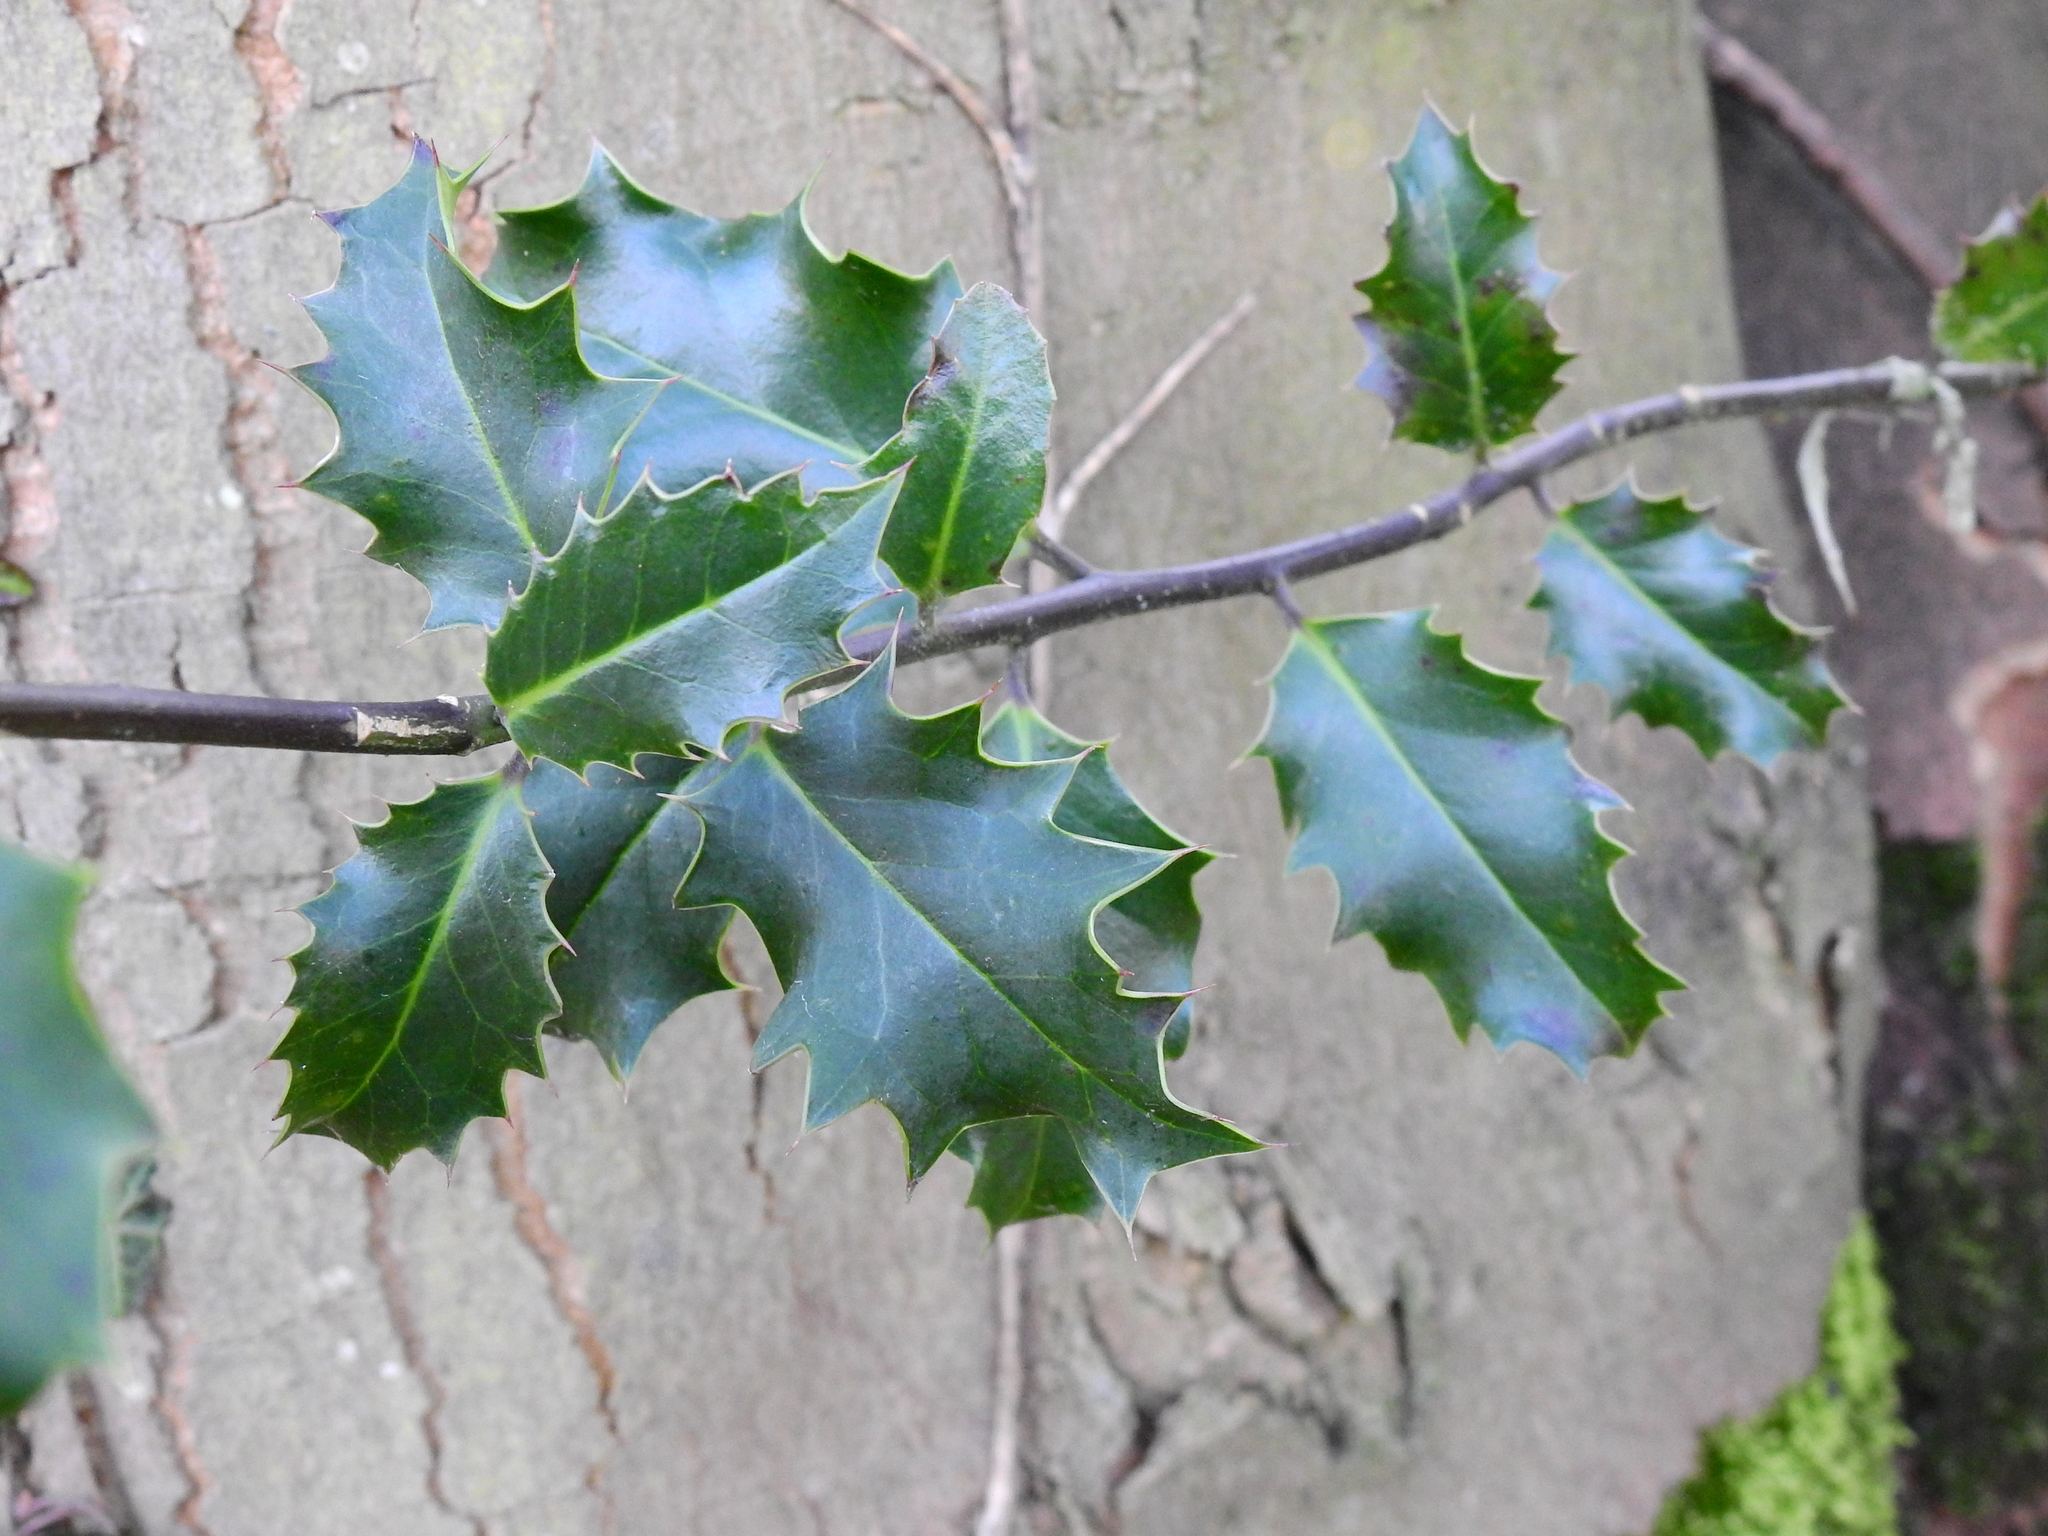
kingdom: Plantae
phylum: Tracheophyta
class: Magnoliopsida
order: Aquifoliales
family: Aquifoliaceae
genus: Ilex
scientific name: Ilex aquifolium
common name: English holly
